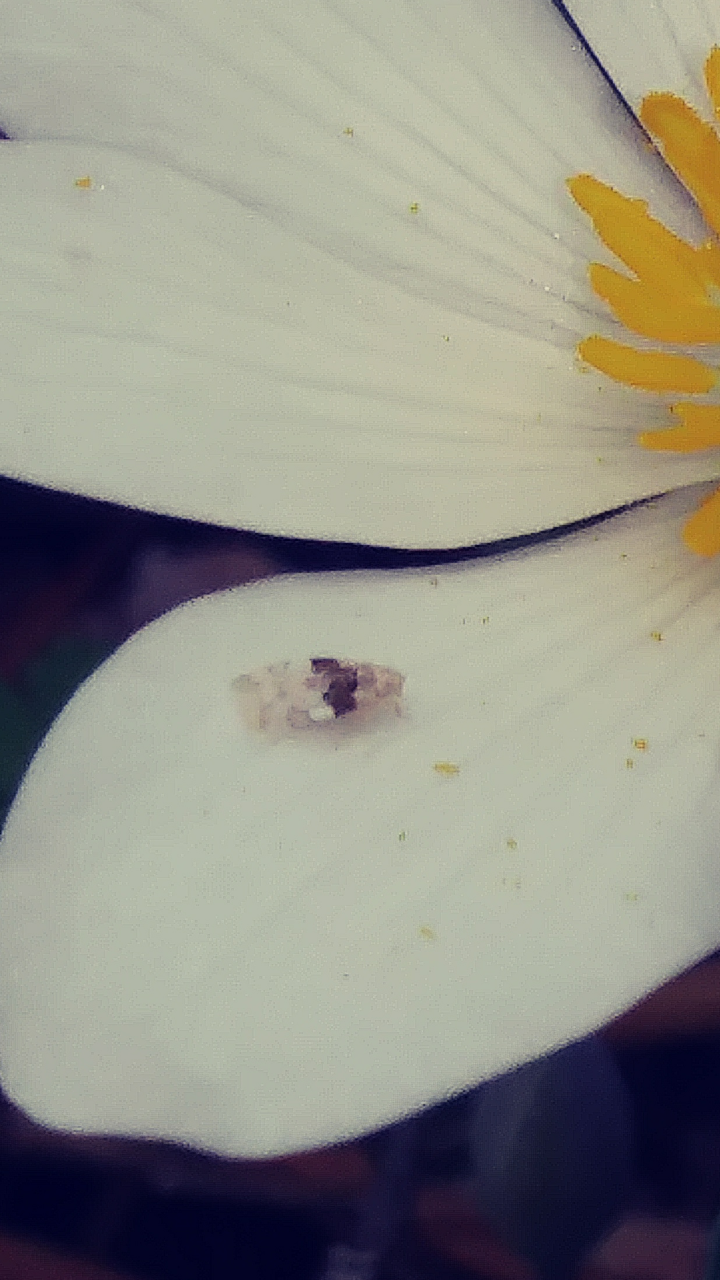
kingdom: Animalia
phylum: Arthropoda
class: Insecta
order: Hemiptera
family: Cicadellidae
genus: Hymetta
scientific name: Hymetta anthisma
